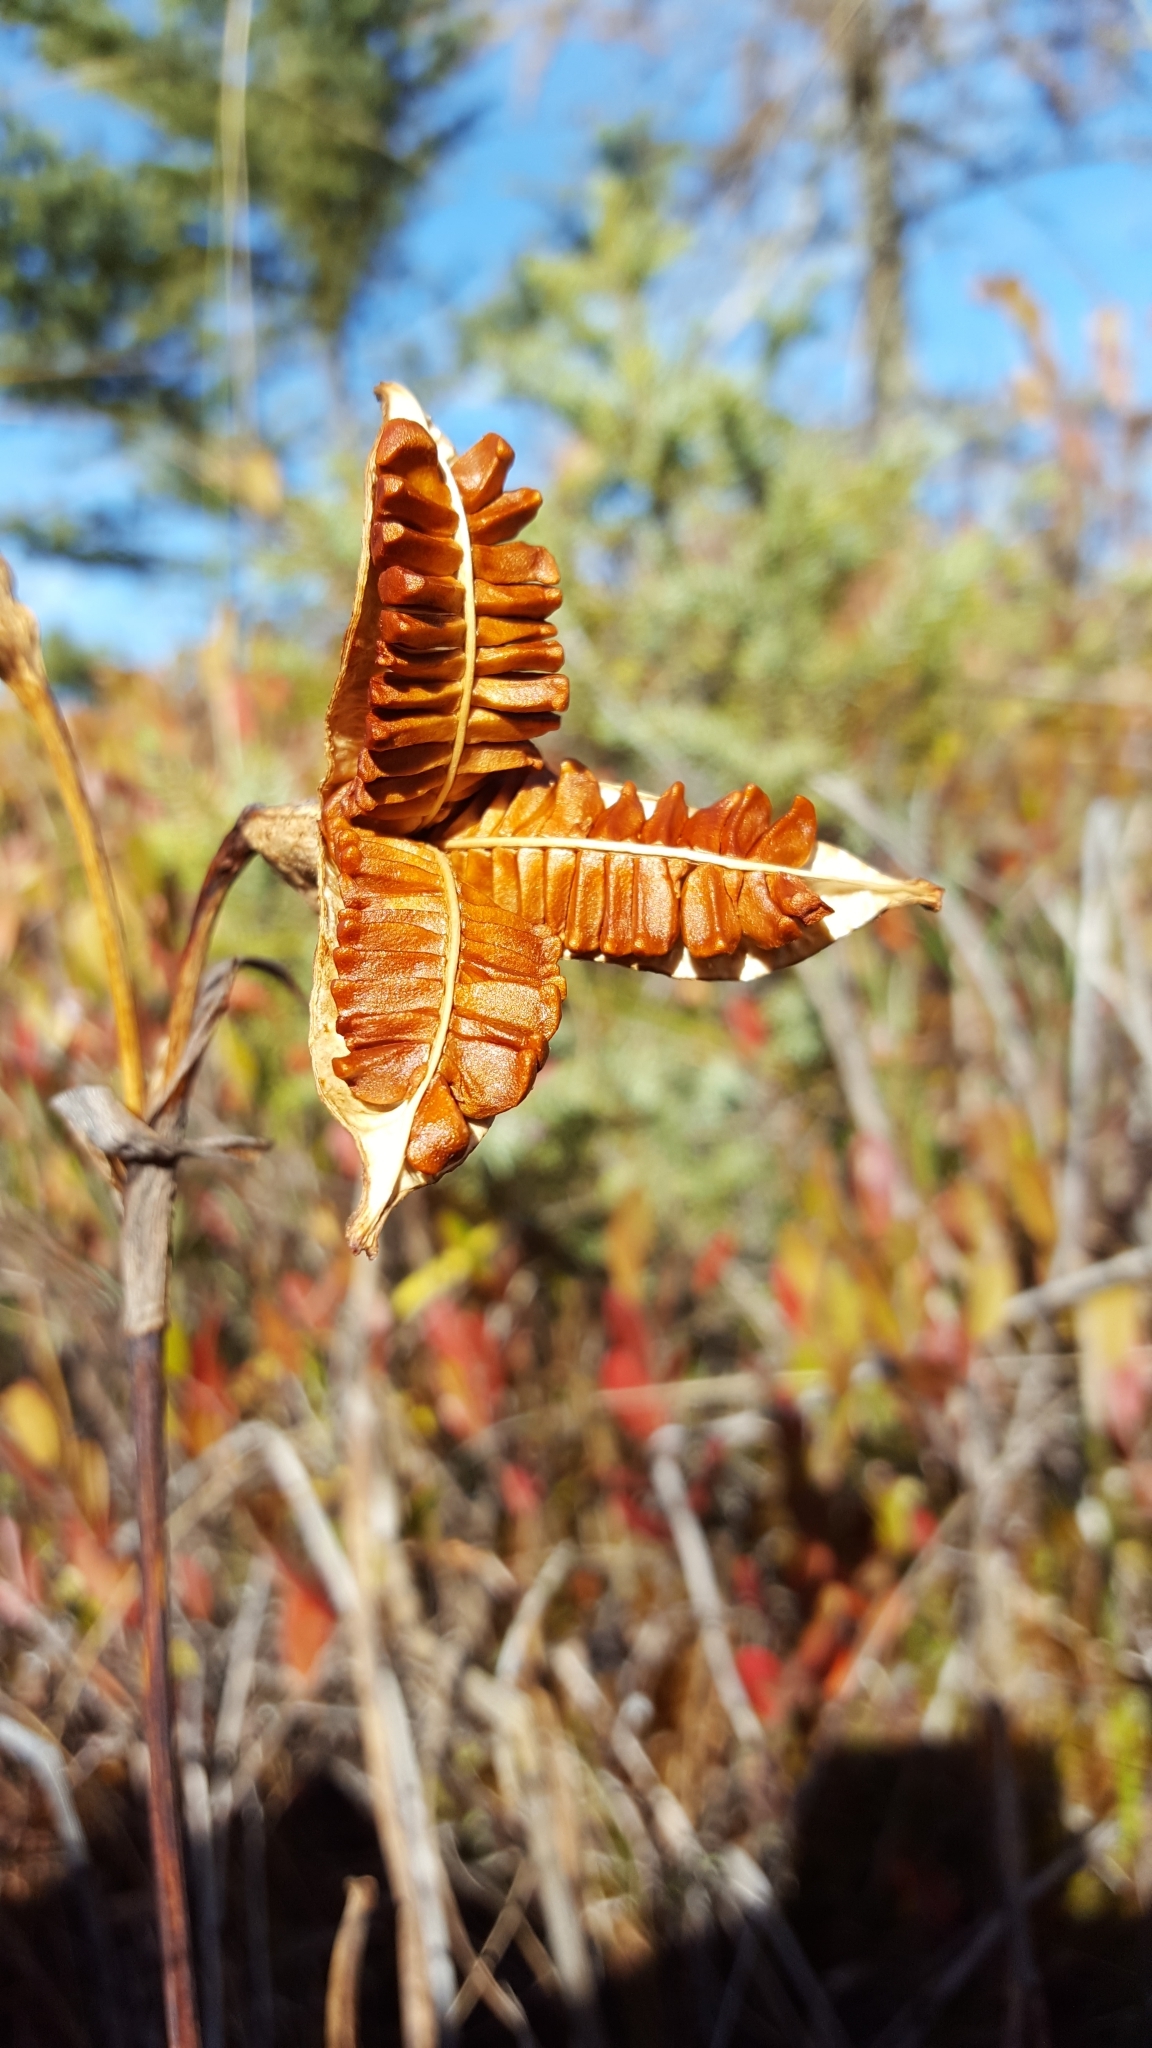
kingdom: Plantae
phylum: Tracheophyta
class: Liliopsida
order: Asparagales
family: Iridaceae
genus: Iris
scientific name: Iris versicolor
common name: Purple iris
